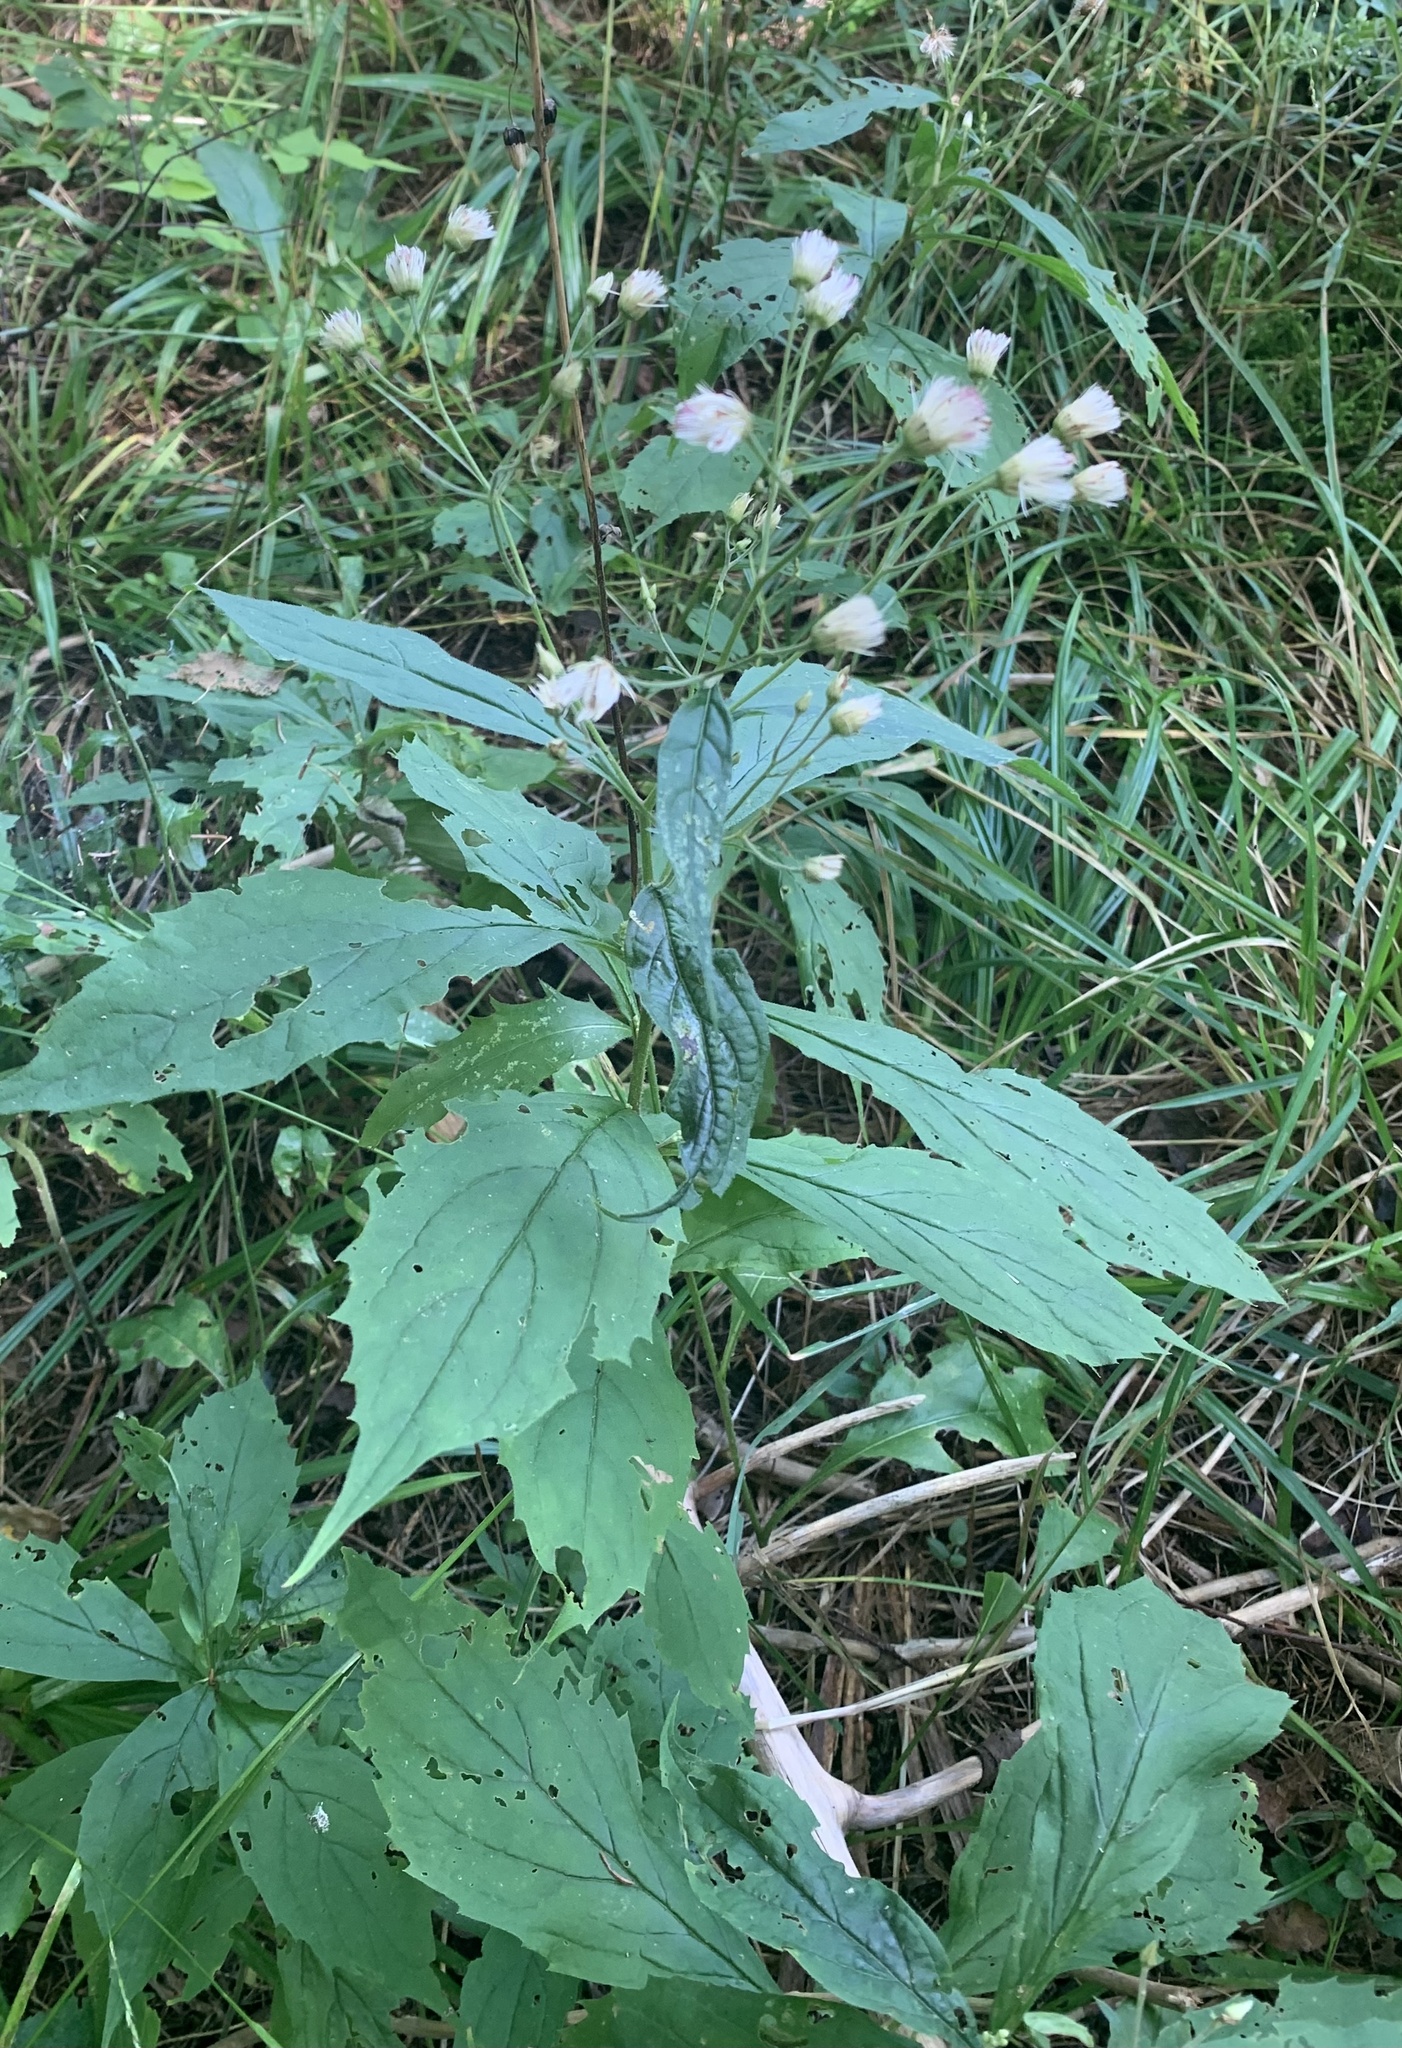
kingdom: Plantae
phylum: Tracheophyta
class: Magnoliopsida
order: Asterales
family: Asteraceae
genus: Oclemena
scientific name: Oclemena acuminata
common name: Mountain aster
